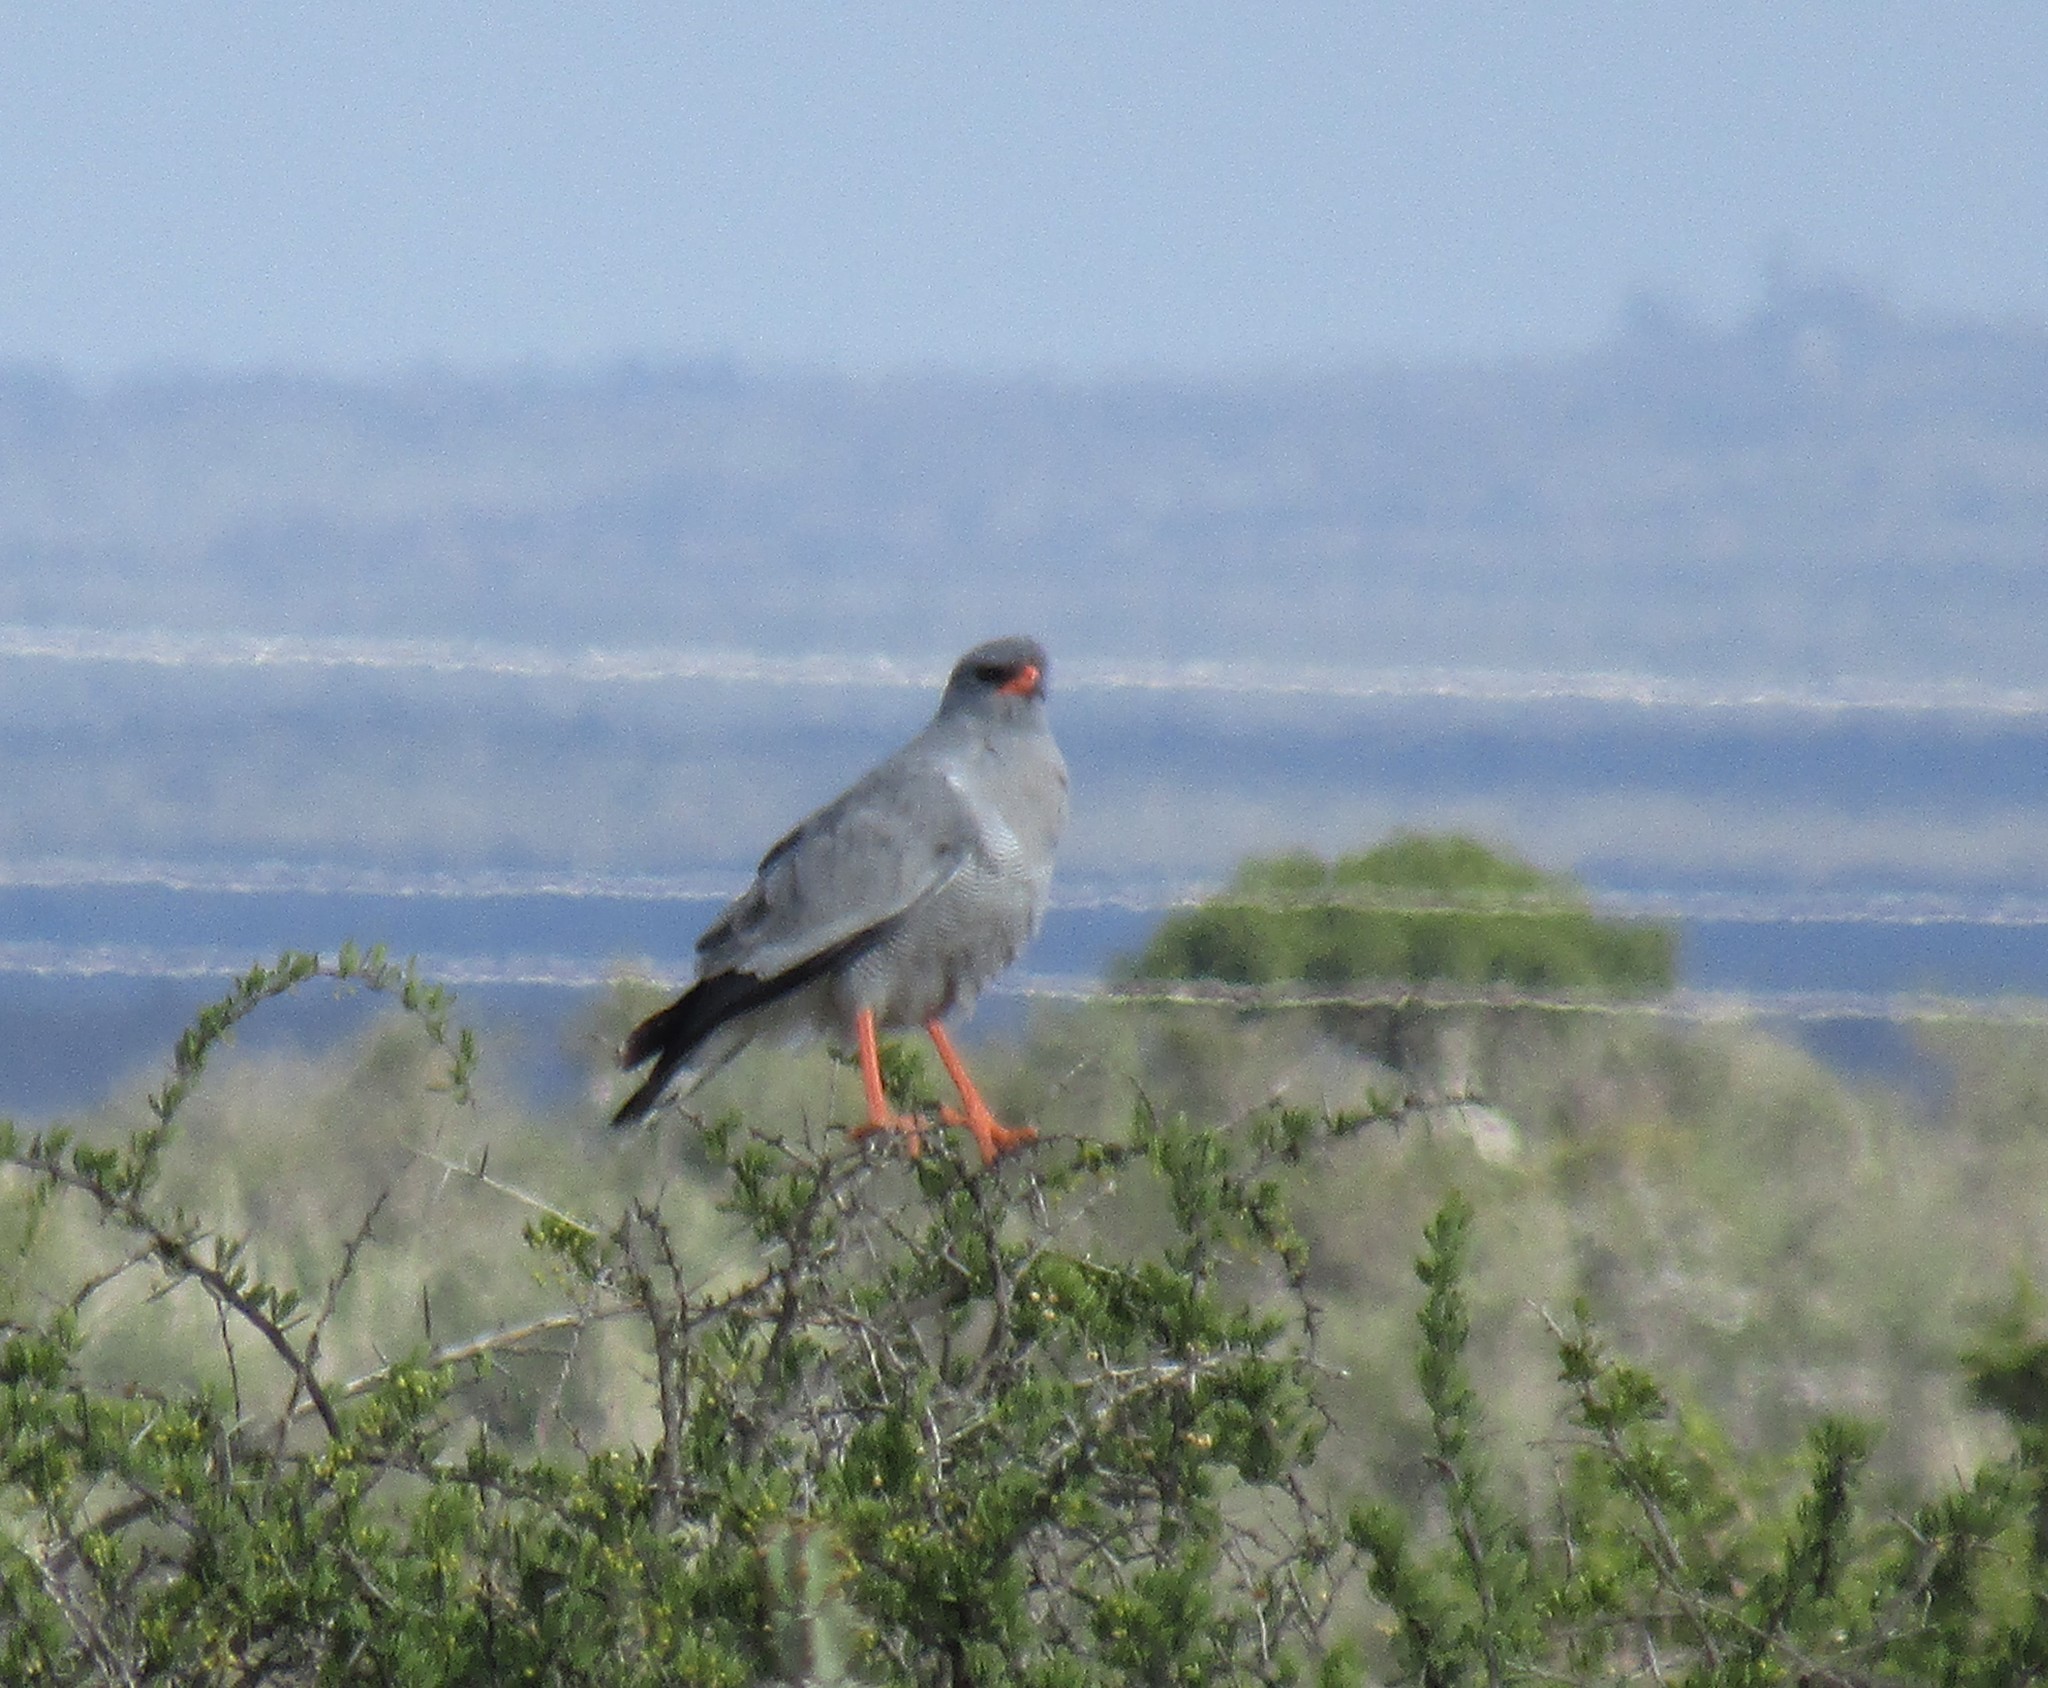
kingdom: Animalia
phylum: Chordata
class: Aves
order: Accipitriformes
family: Accipitridae
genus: Melierax
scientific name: Melierax canorus
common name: Pale chanting-goshawk
